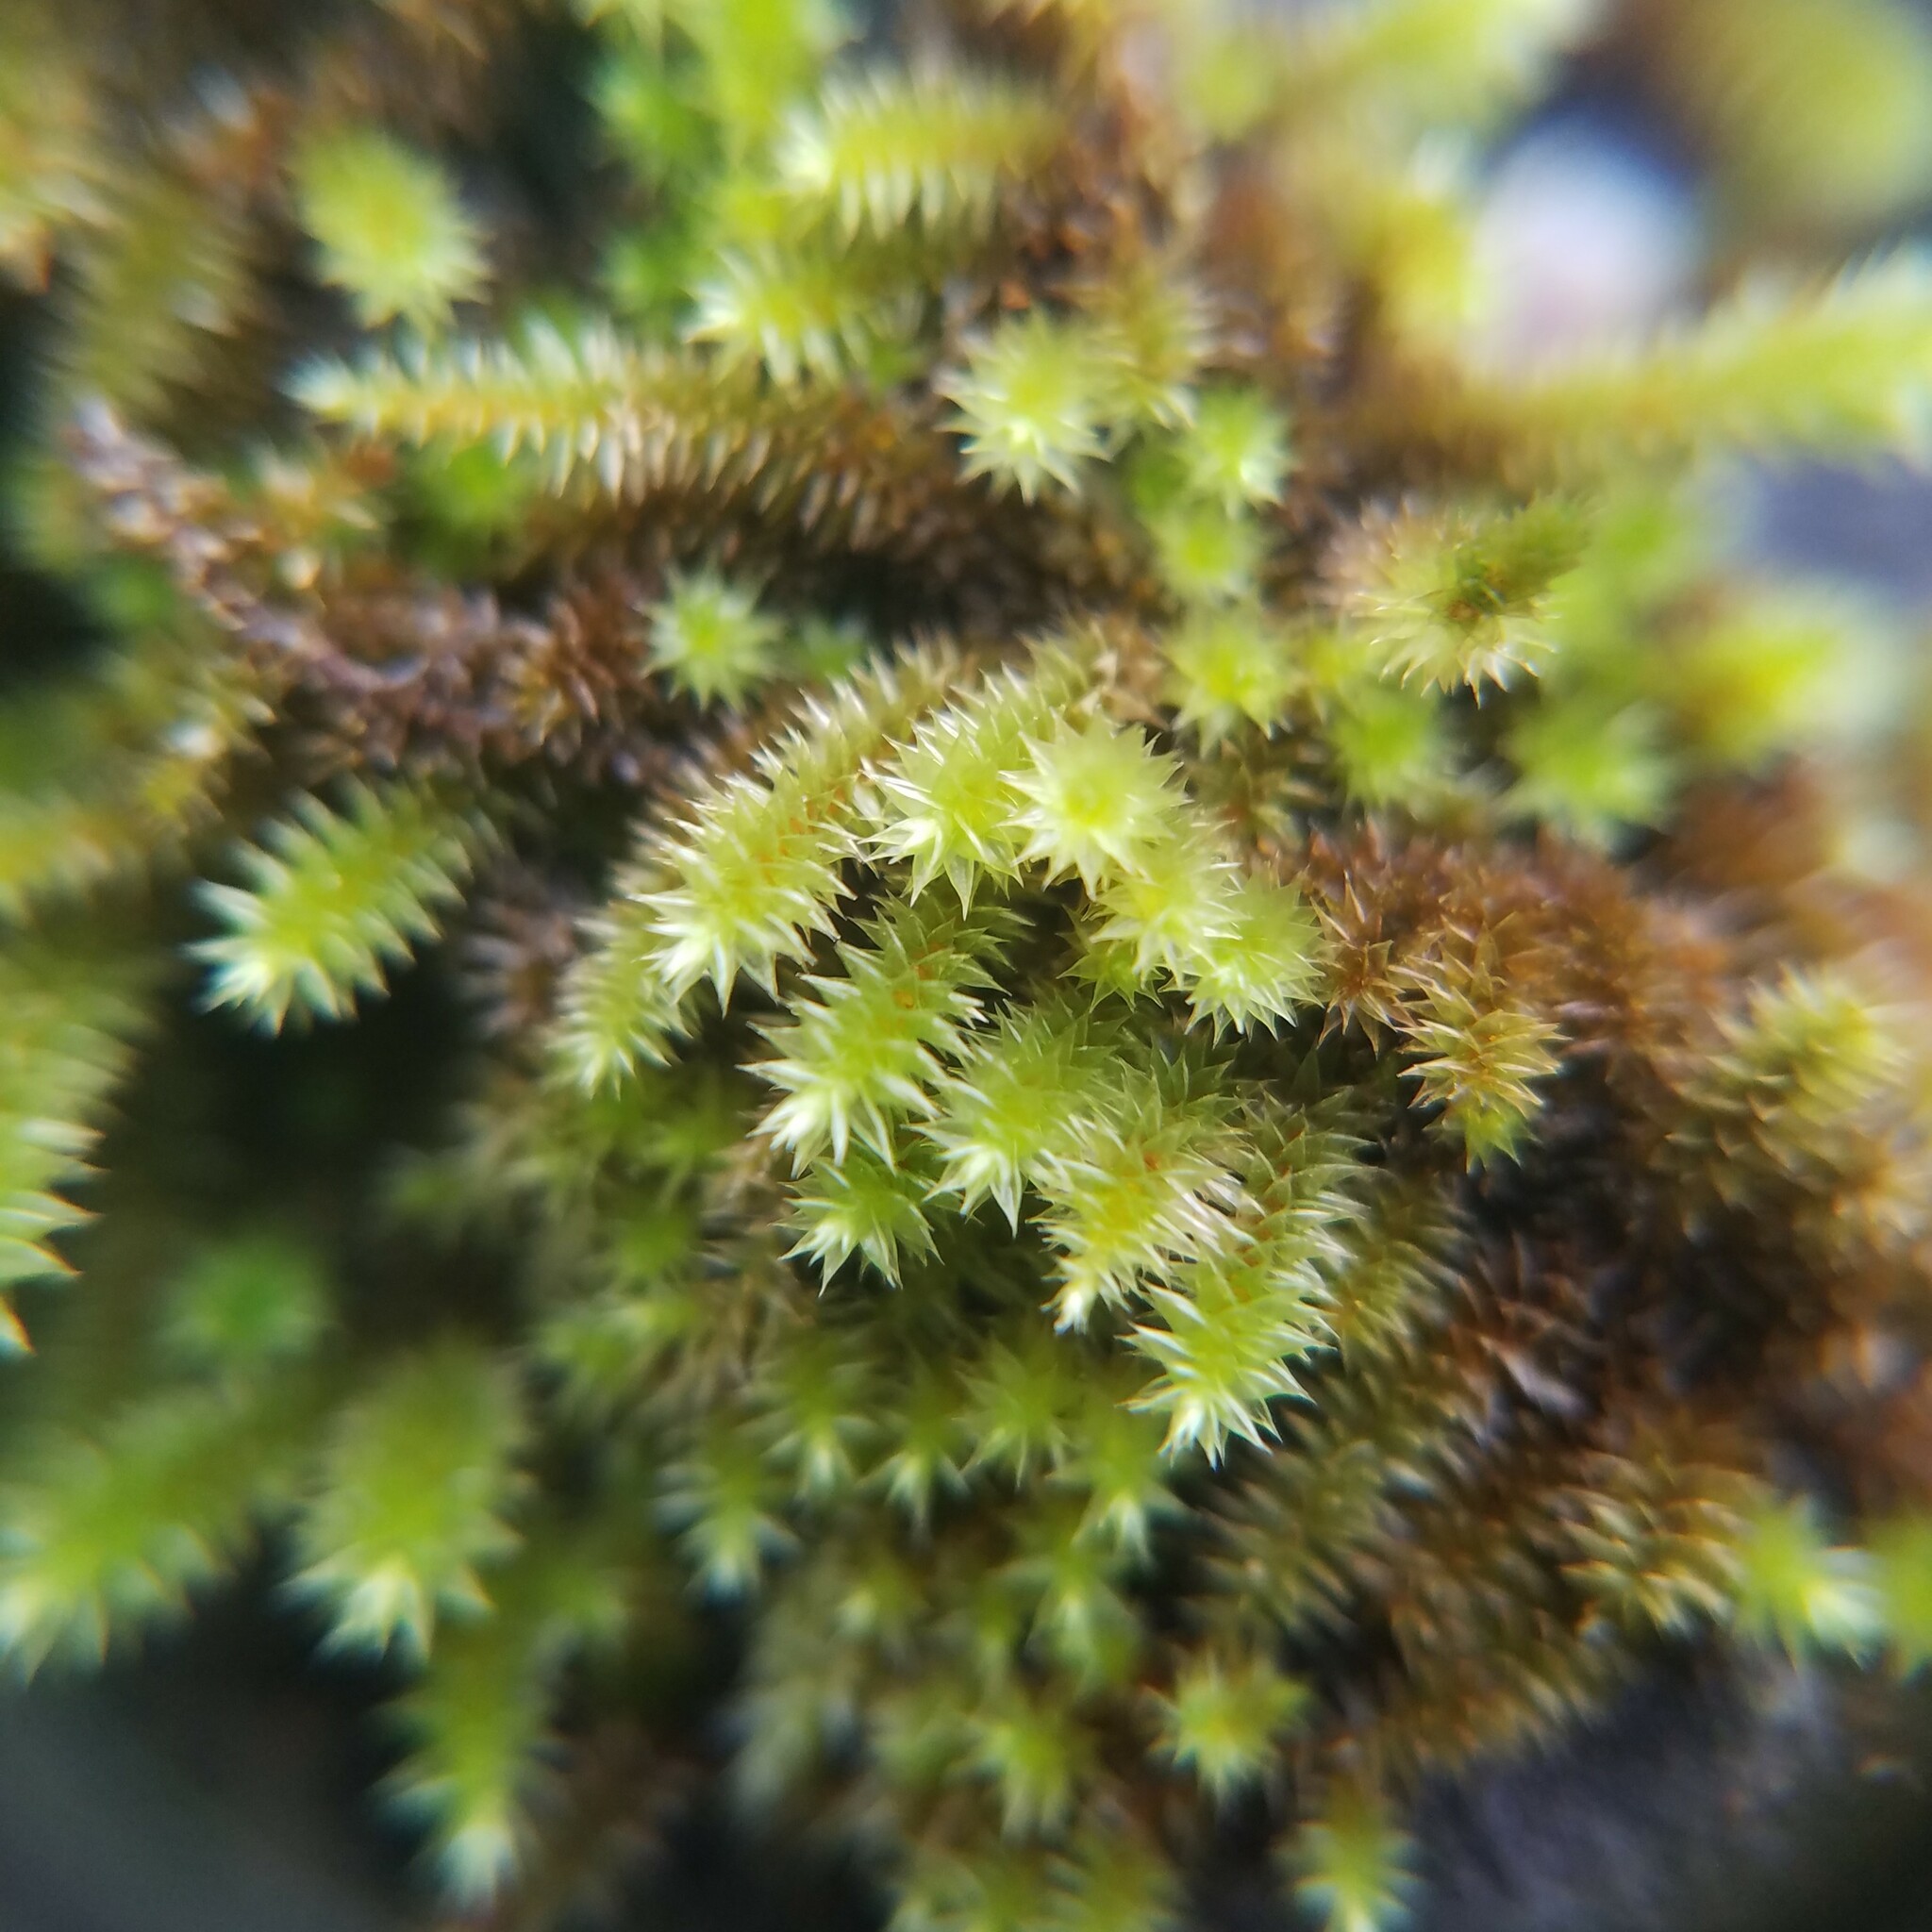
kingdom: Plantae
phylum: Bryophyta
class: Bryopsida
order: Hypnales
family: Leucodontaceae
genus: Leucodon
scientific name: Leucodon julaceus
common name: Smooth hook moss
